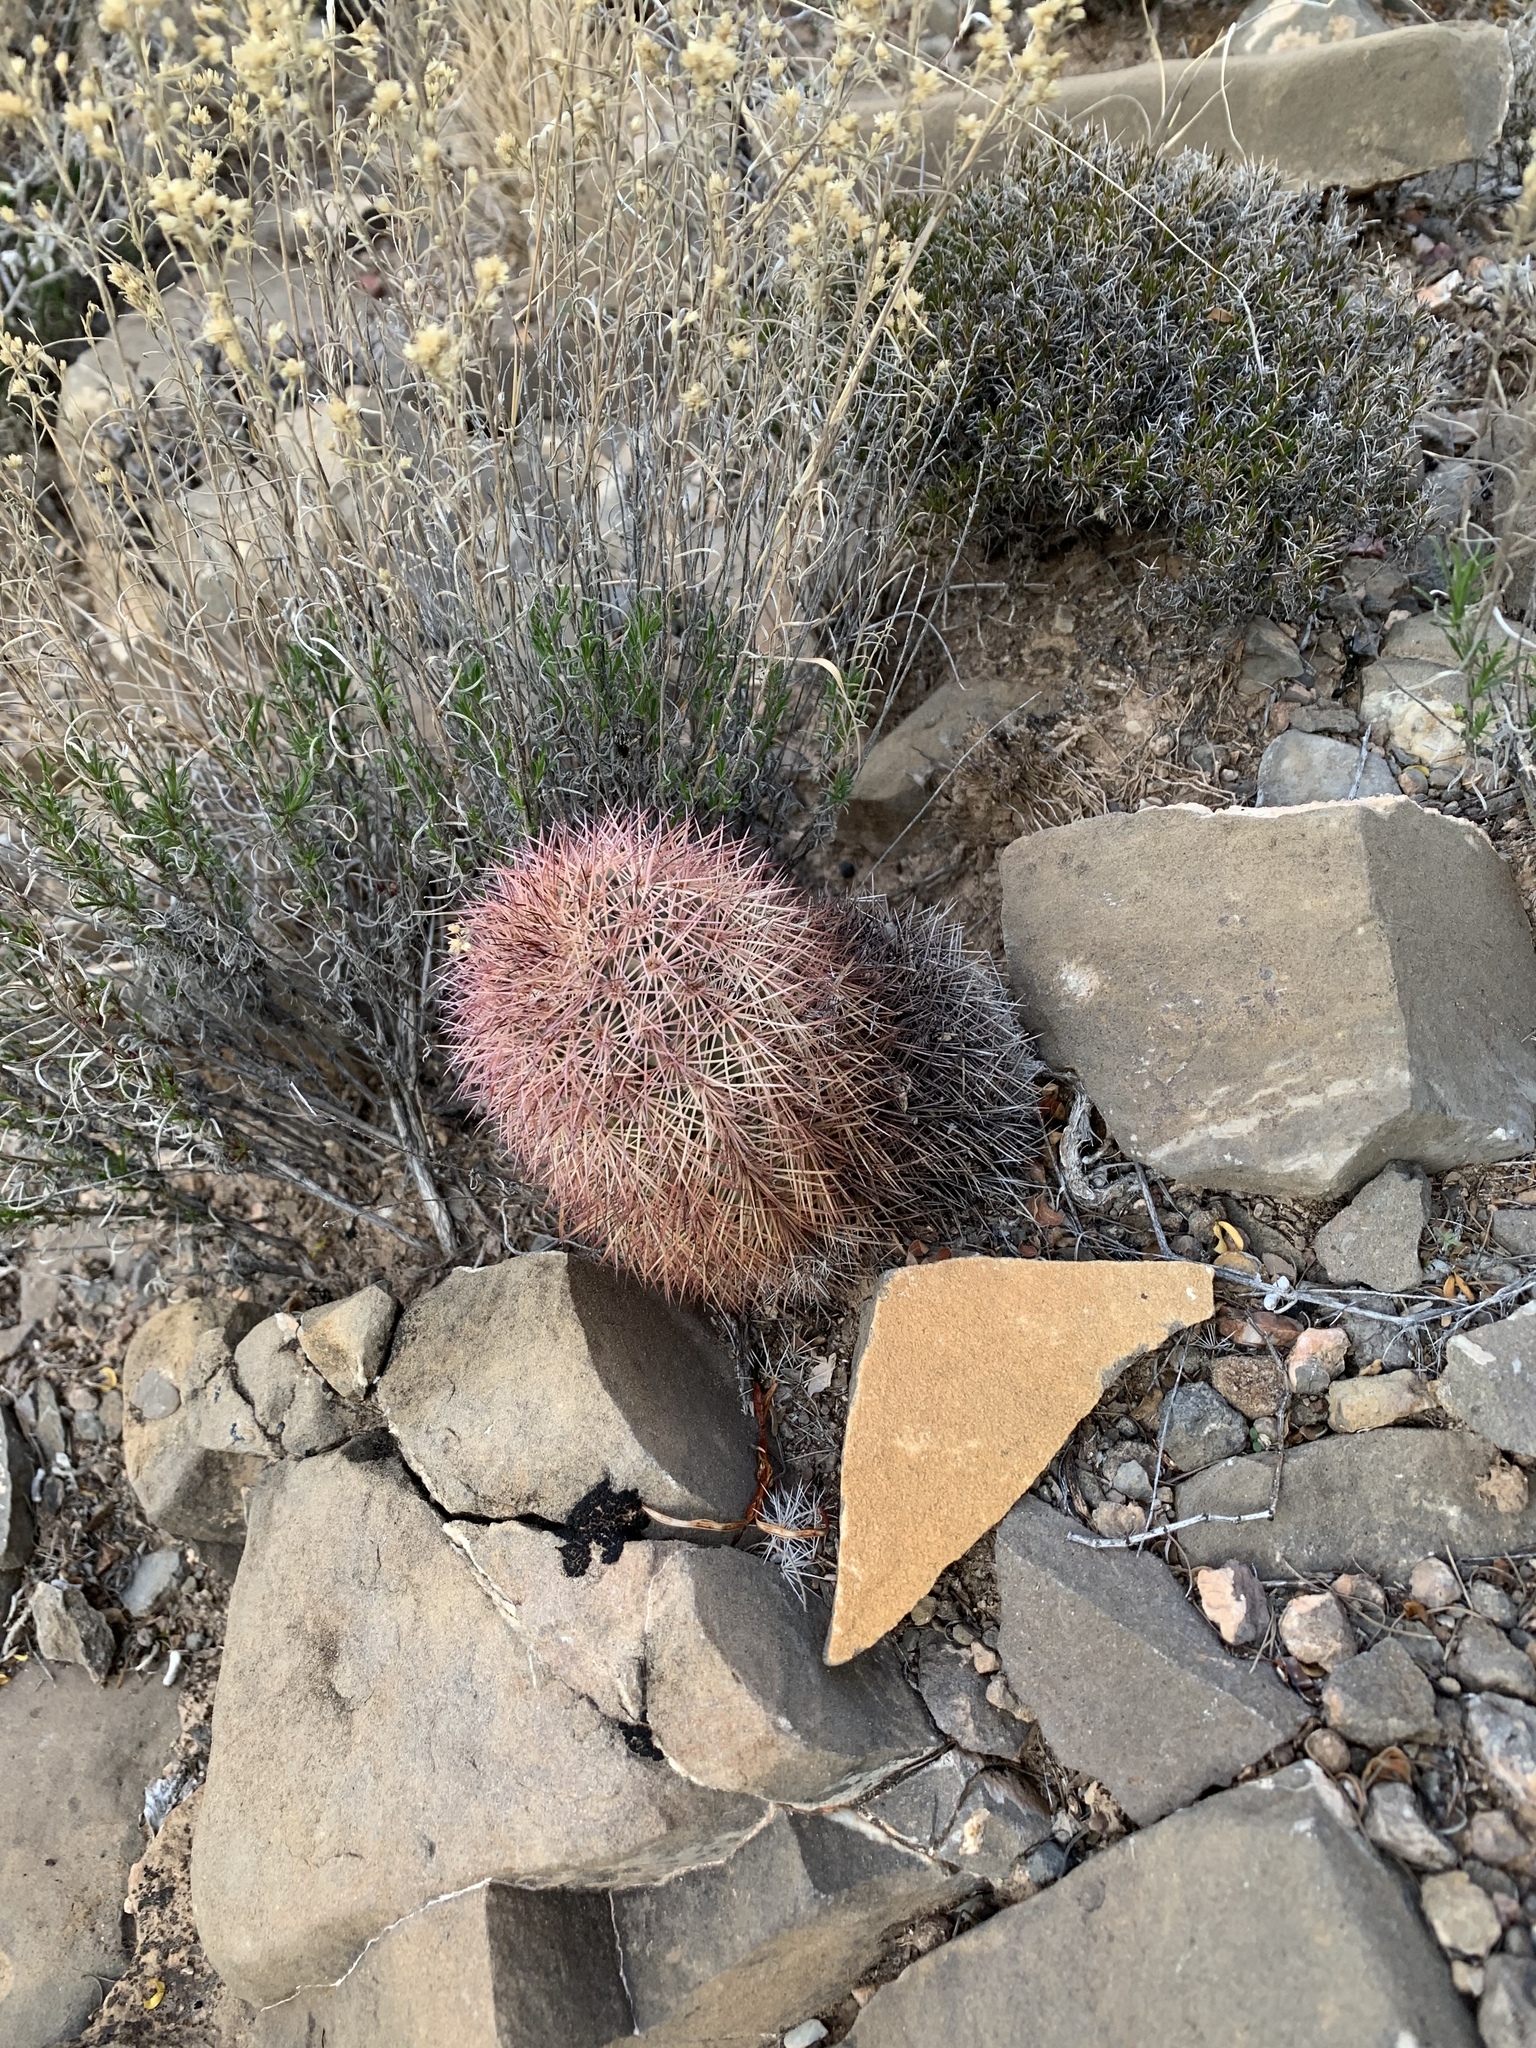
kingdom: Plantae
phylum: Tracheophyta
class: Magnoliopsida
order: Caryophyllales
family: Cactaceae
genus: Echinocereus
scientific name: Echinocereus dasyacanthus
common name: Spiny hedgehog cactus
